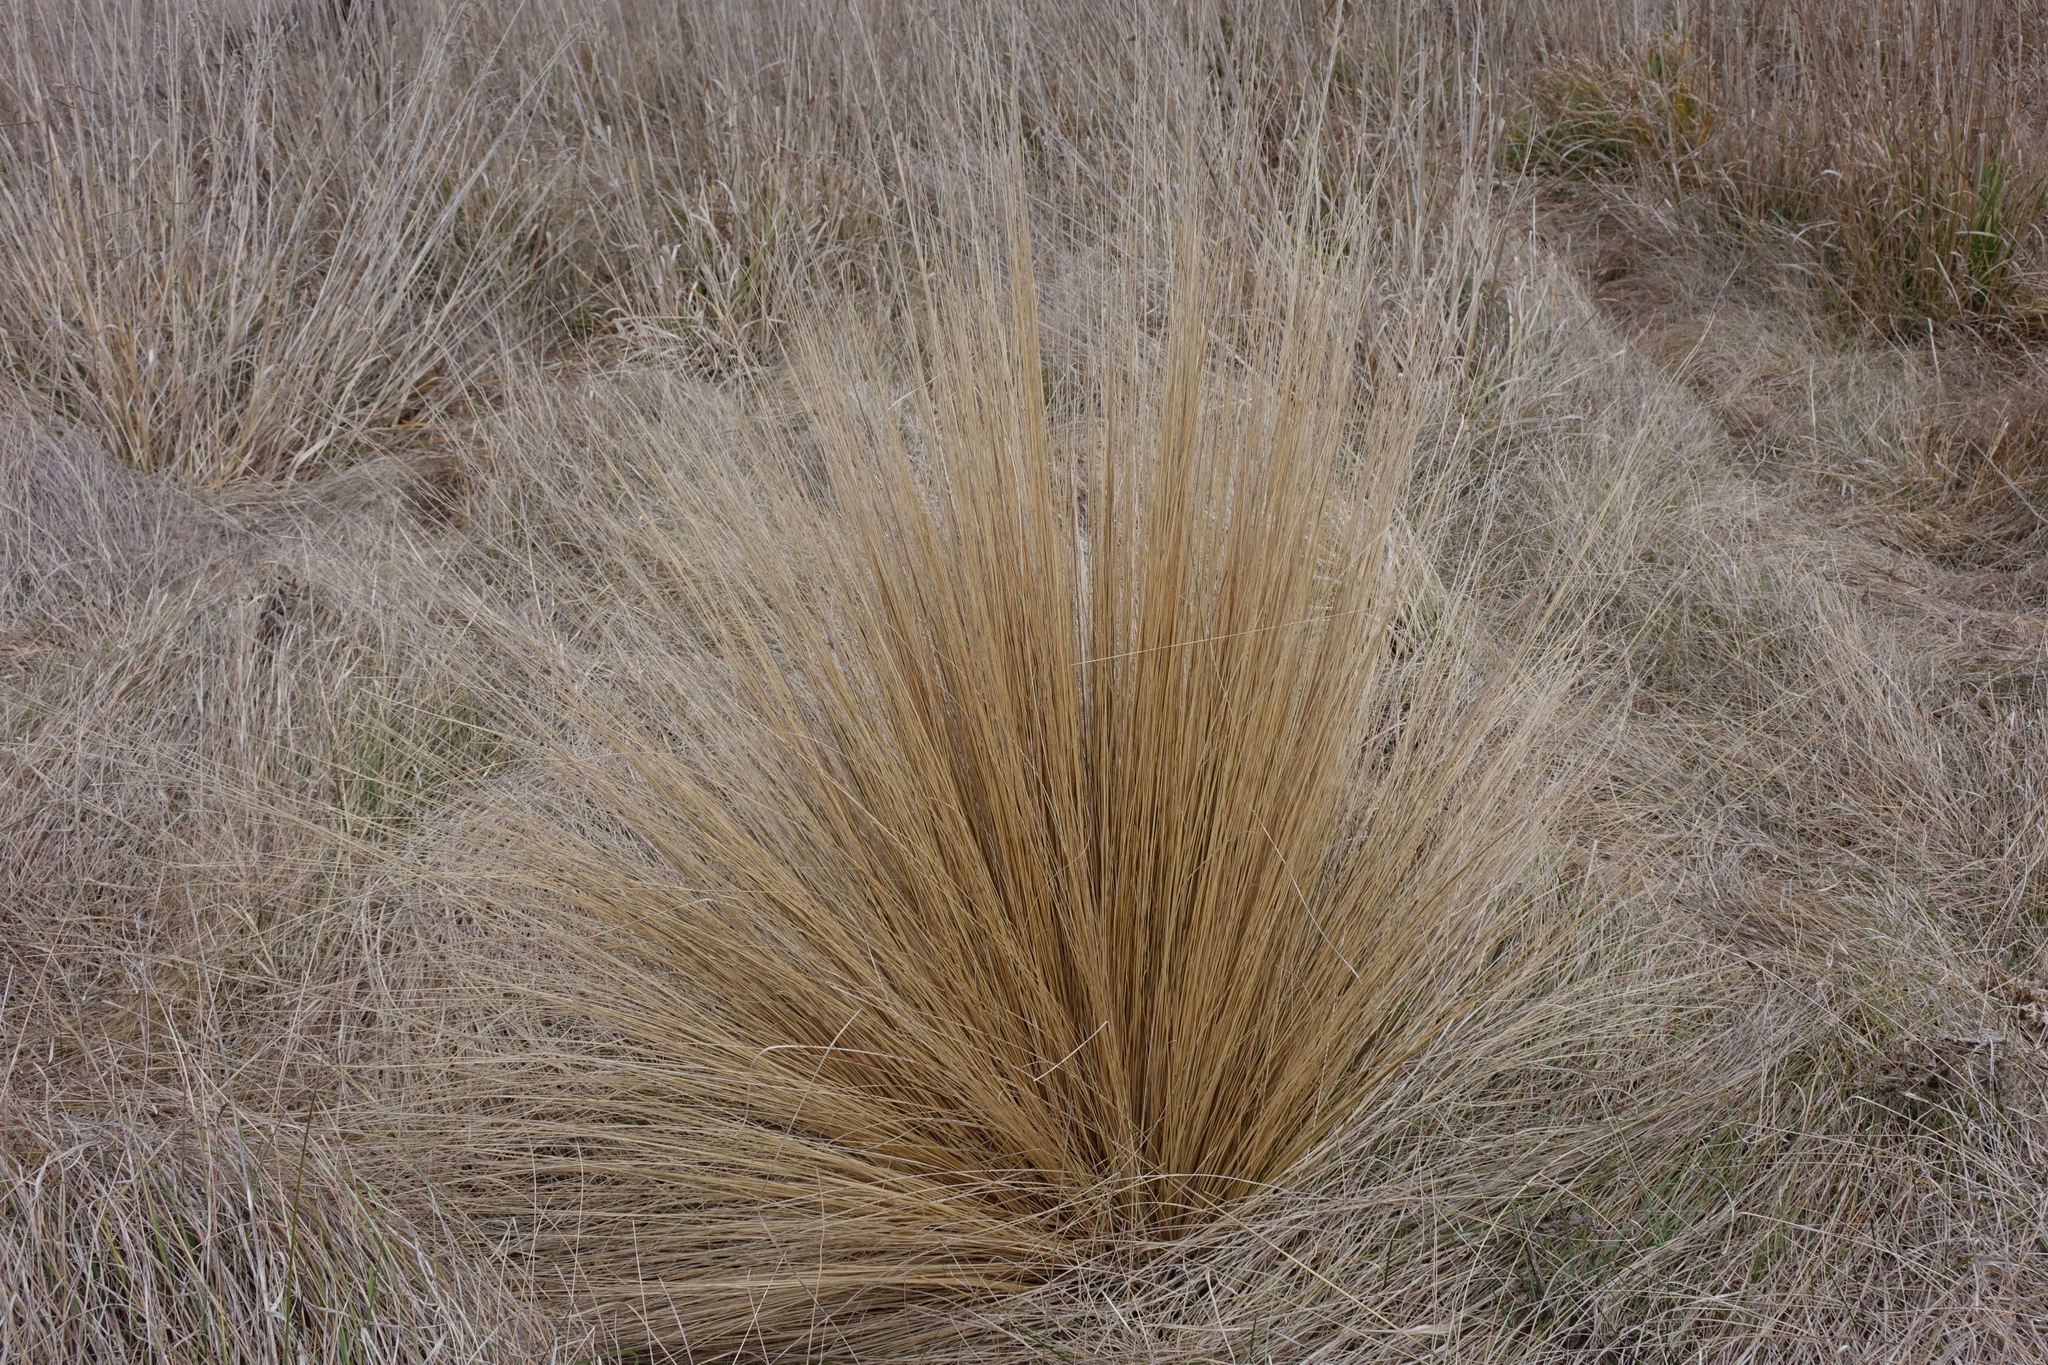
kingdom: Plantae
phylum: Tracheophyta
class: Liliopsida
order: Poales
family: Poaceae
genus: Festuca
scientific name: Festuca novae-zelandiae
